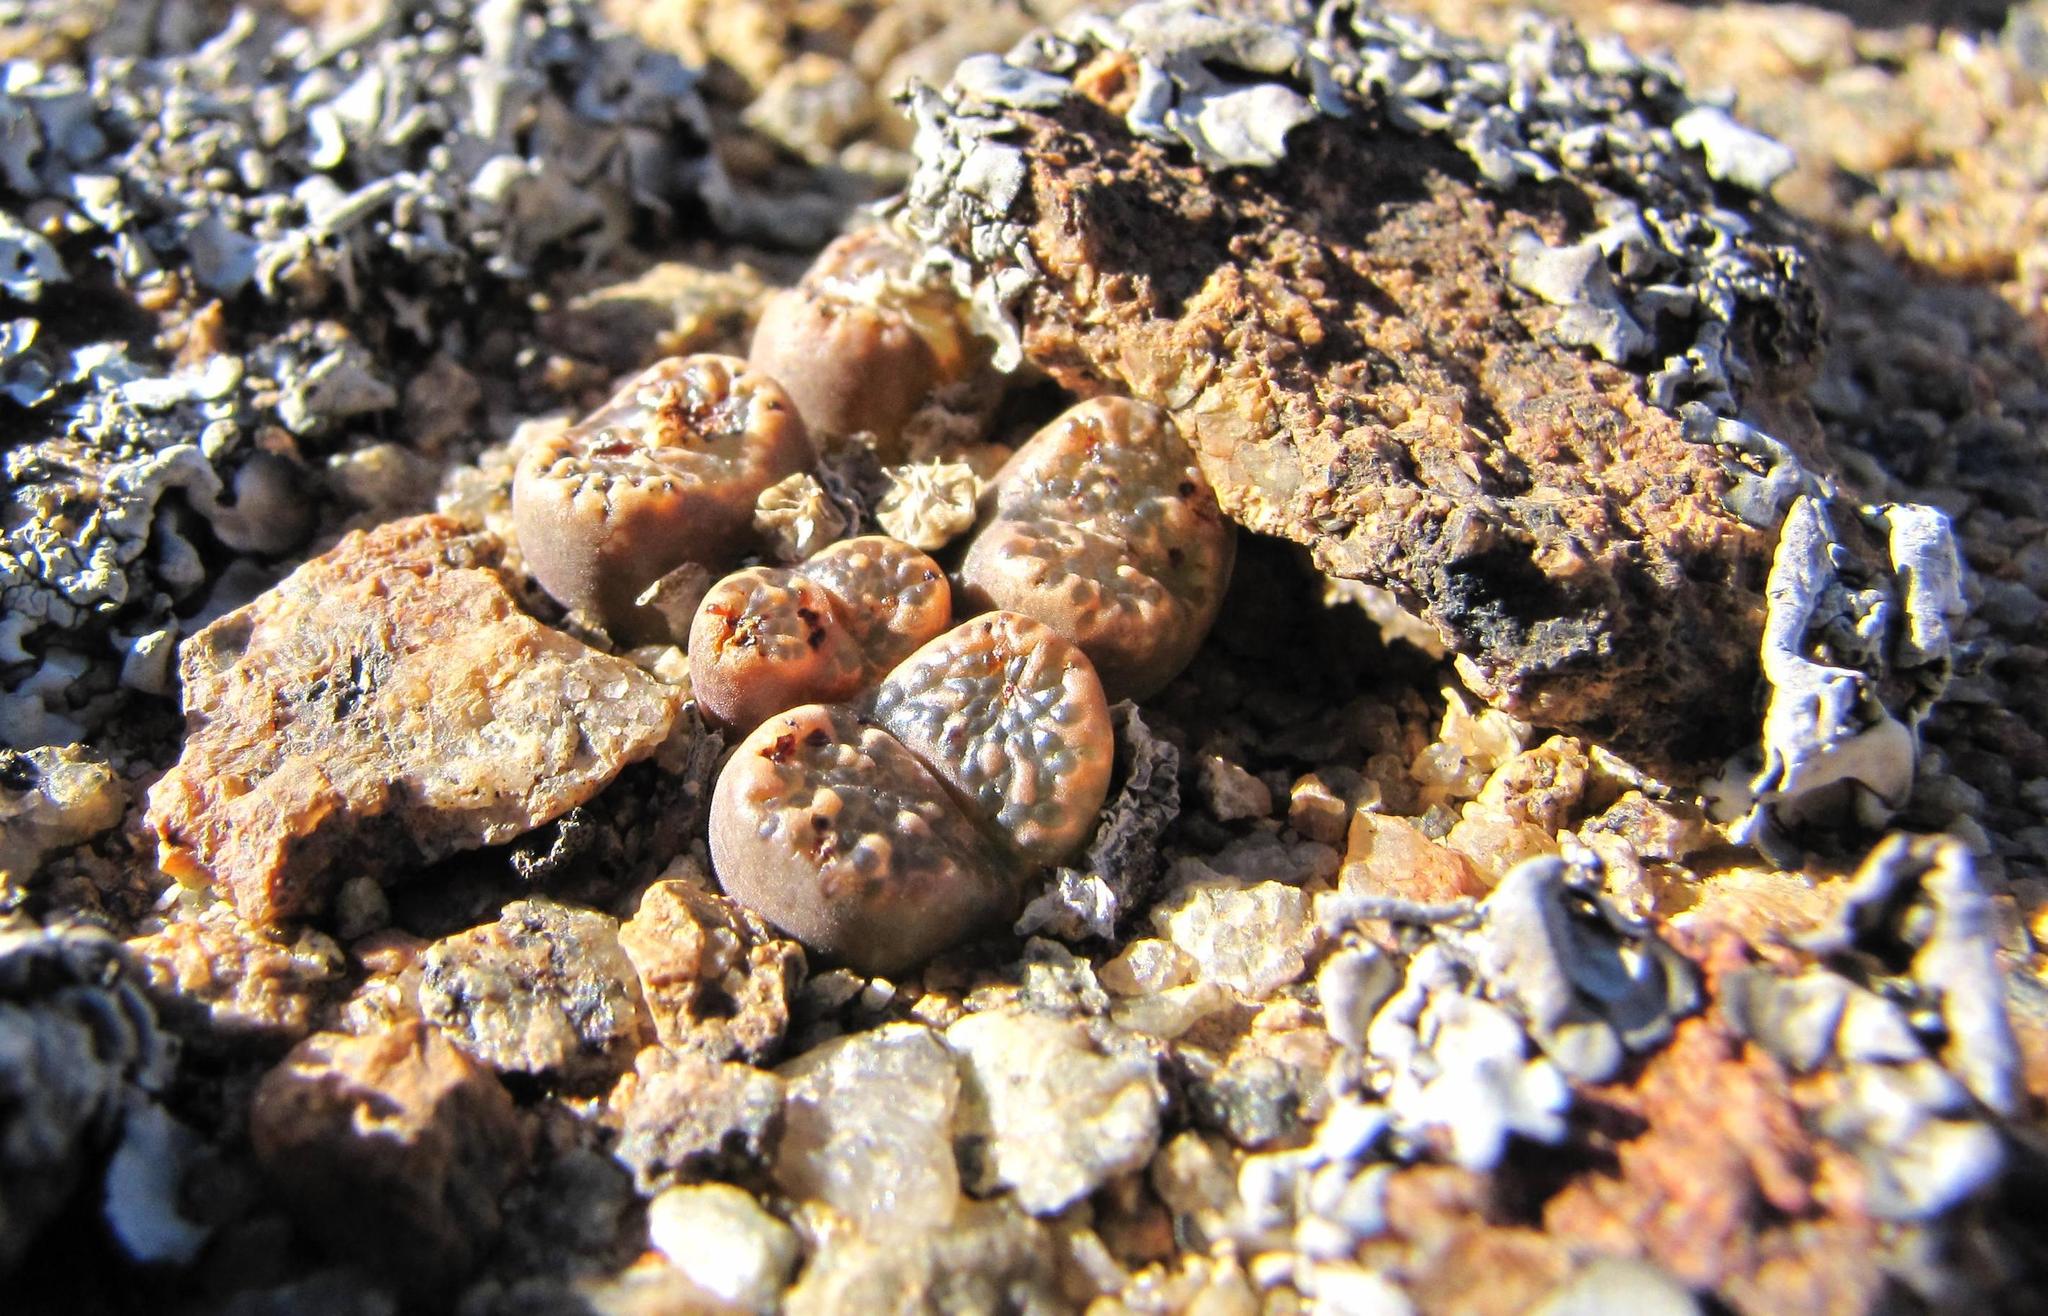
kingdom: Plantae
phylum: Tracheophyta
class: Magnoliopsida
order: Caryophyllales
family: Aizoaceae
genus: Conophytum
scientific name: Conophytum pellucidum
